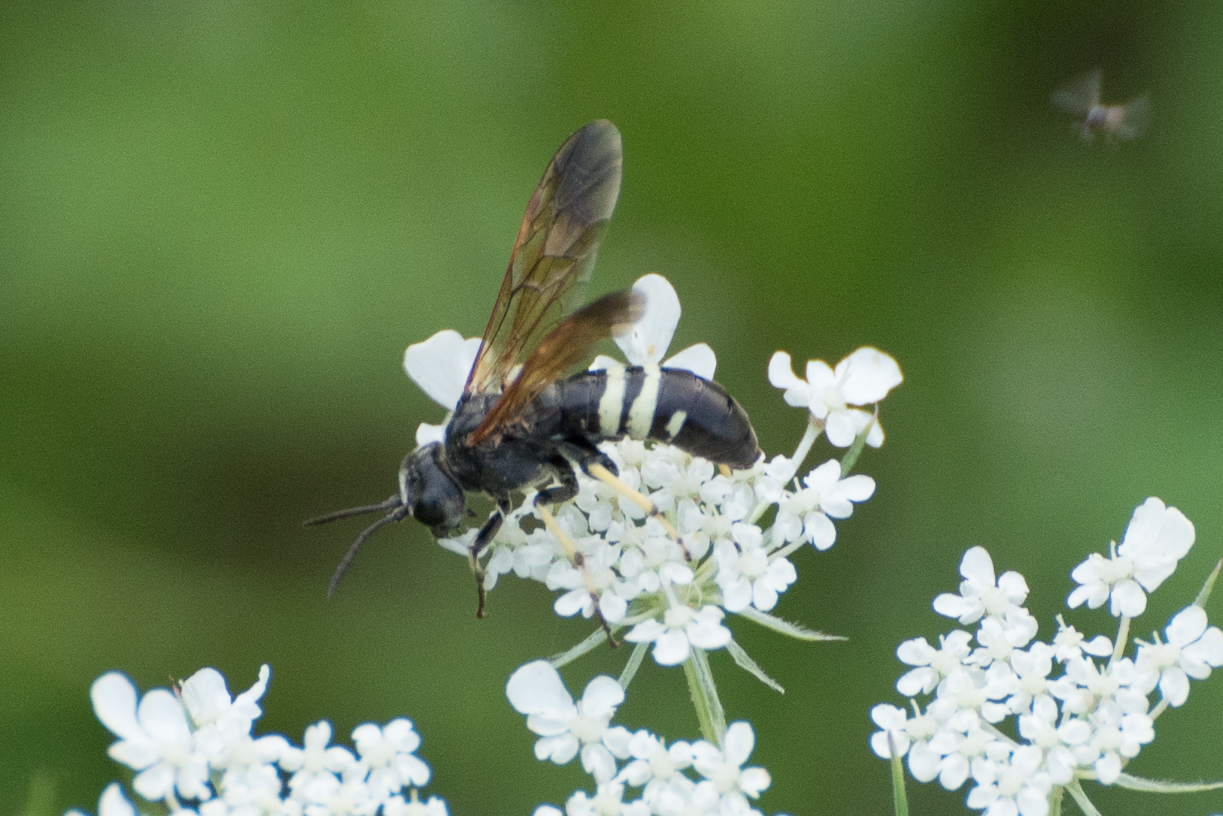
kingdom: Animalia
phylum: Arthropoda
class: Insecta
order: Hymenoptera
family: Tenthredinidae
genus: Tenthredo
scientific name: Tenthredo neobesa
